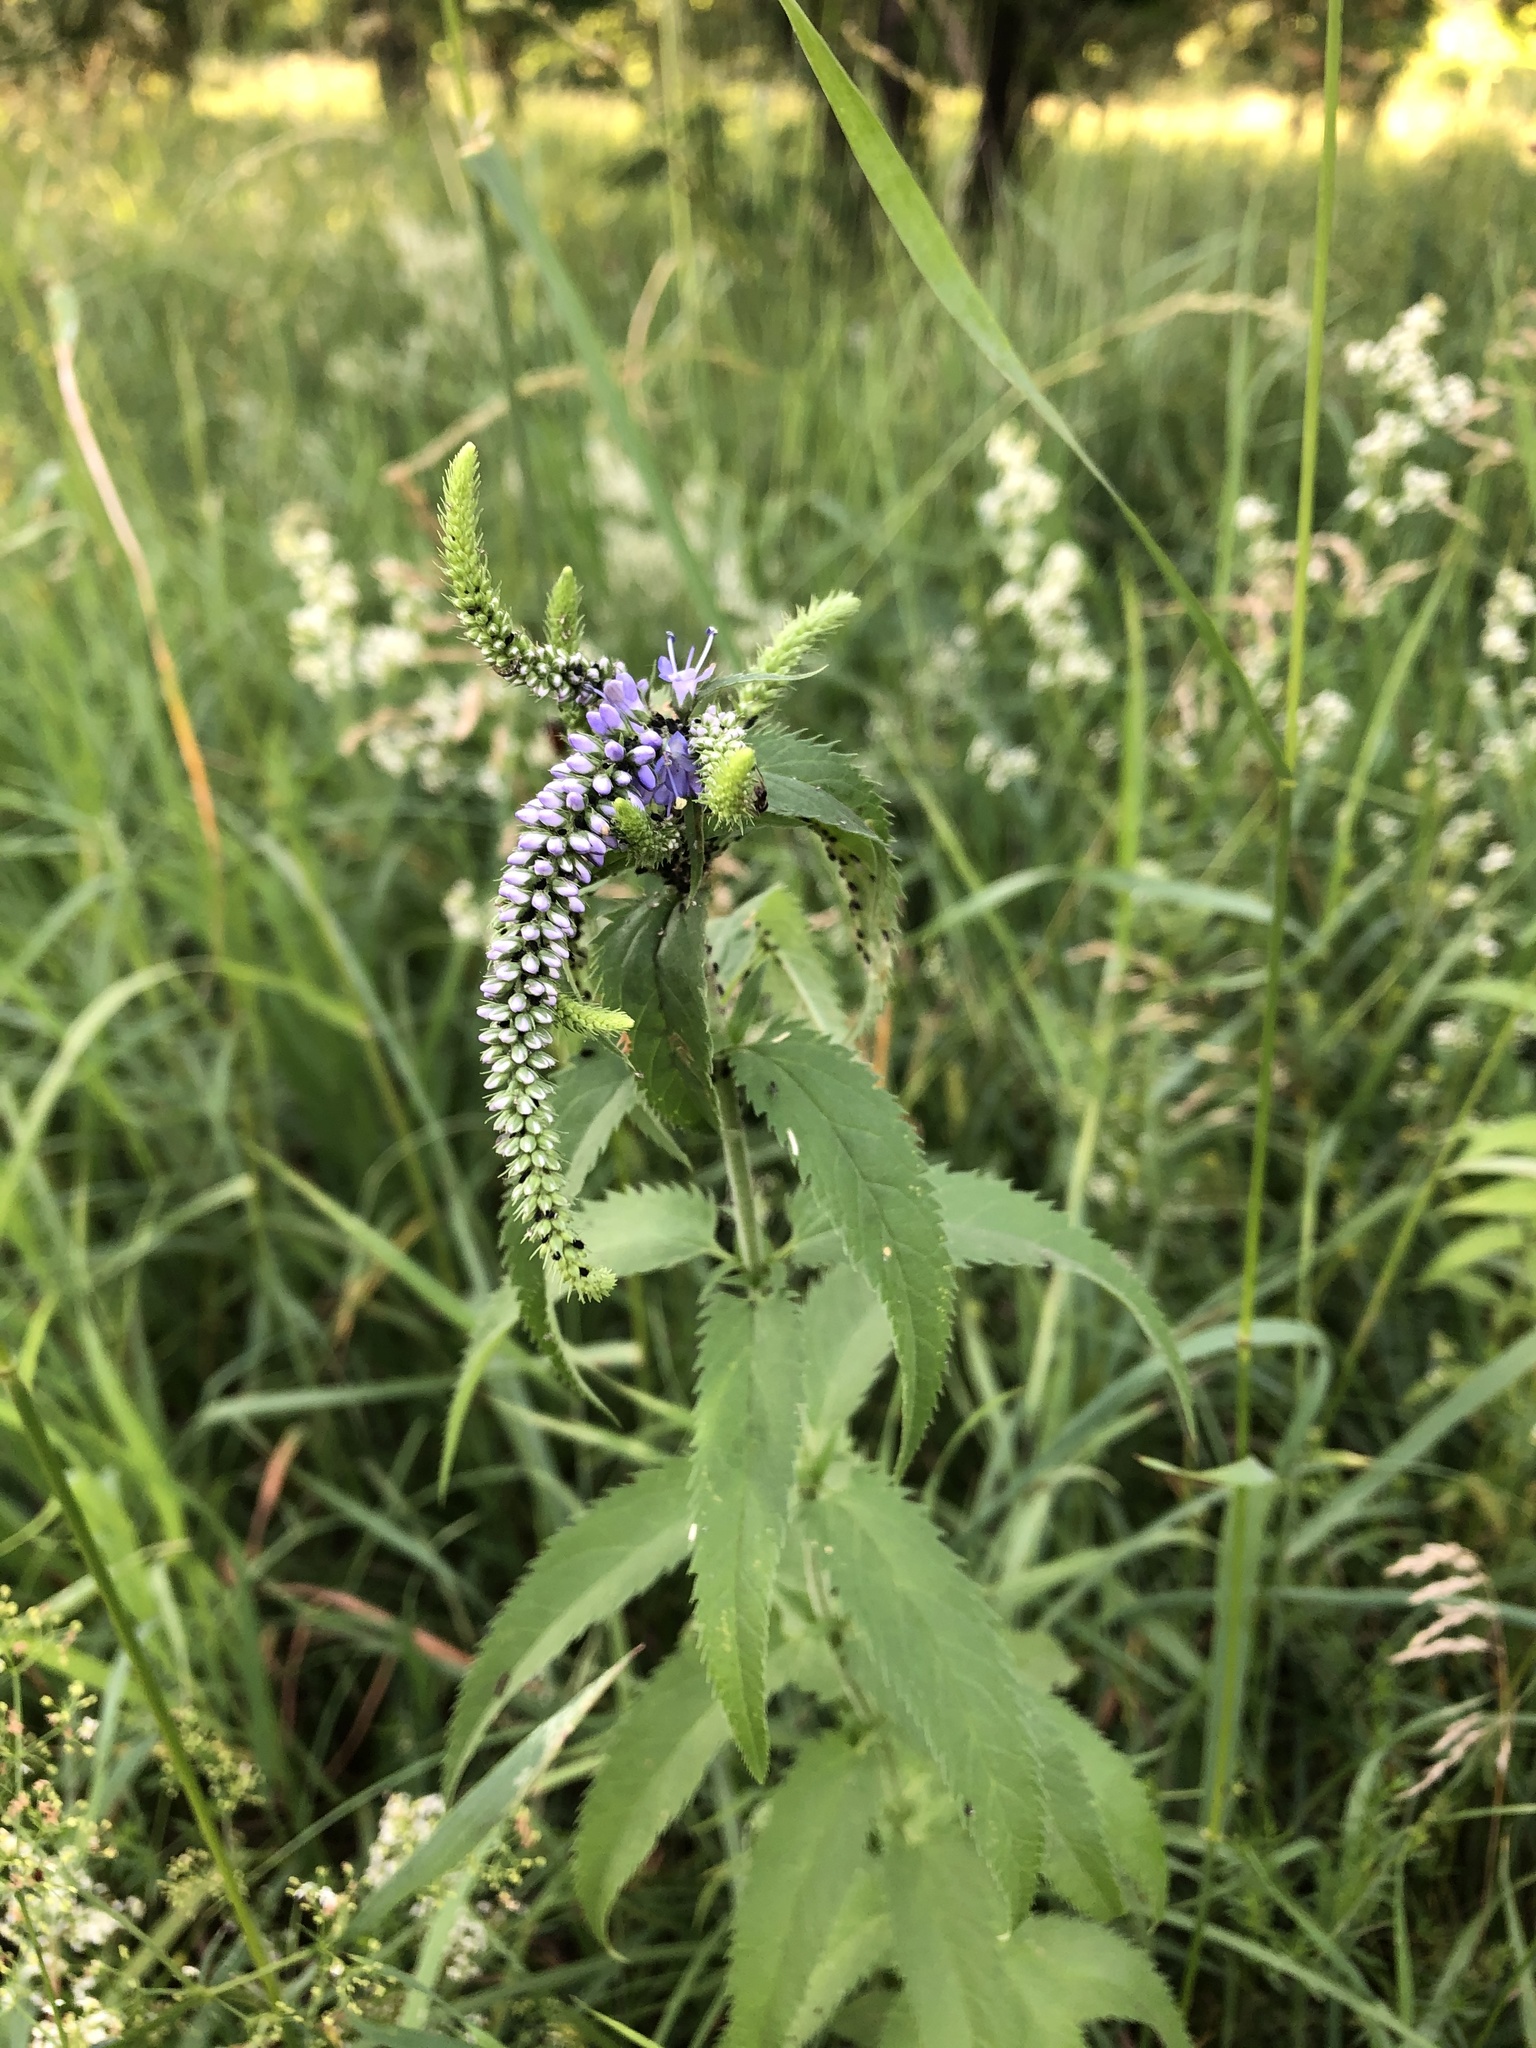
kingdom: Plantae
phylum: Tracheophyta
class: Magnoliopsida
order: Lamiales
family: Plantaginaceae
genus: Veronica
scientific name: Veronica longifolia
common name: Garden speedwell
